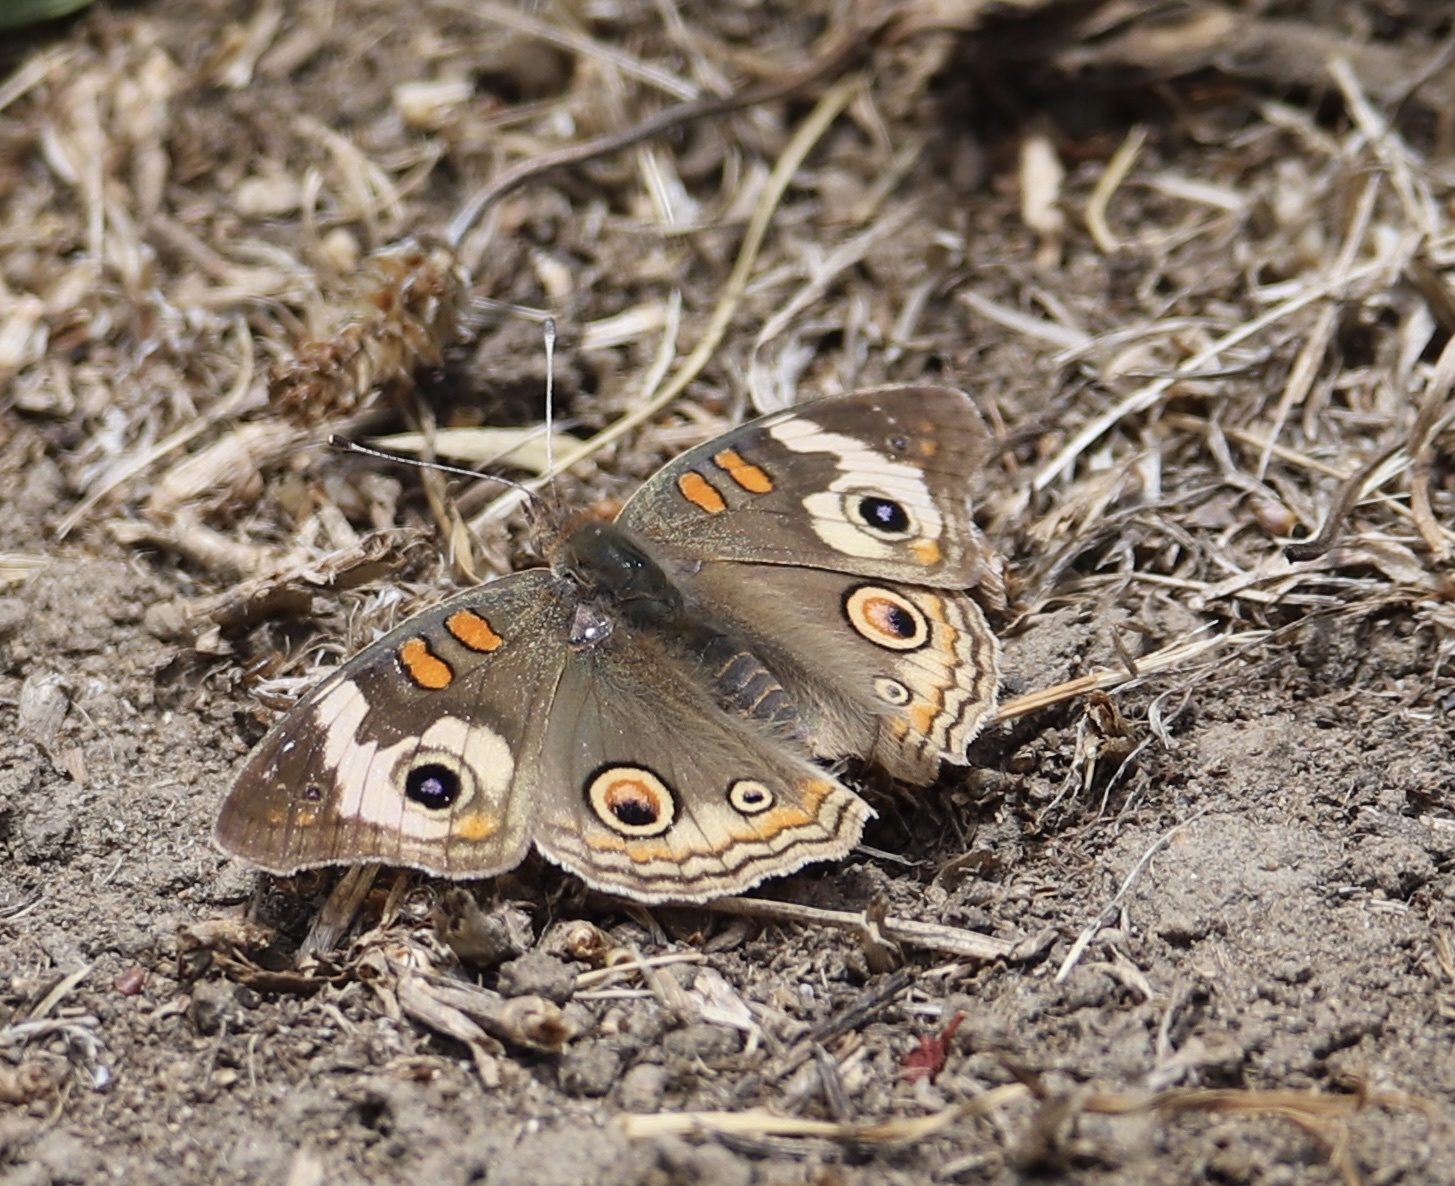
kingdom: Animalia
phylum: Arthropoda
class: Insecta
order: Lepidoptera
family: Nymphalidae
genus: Junonia
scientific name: Junonia grisea
